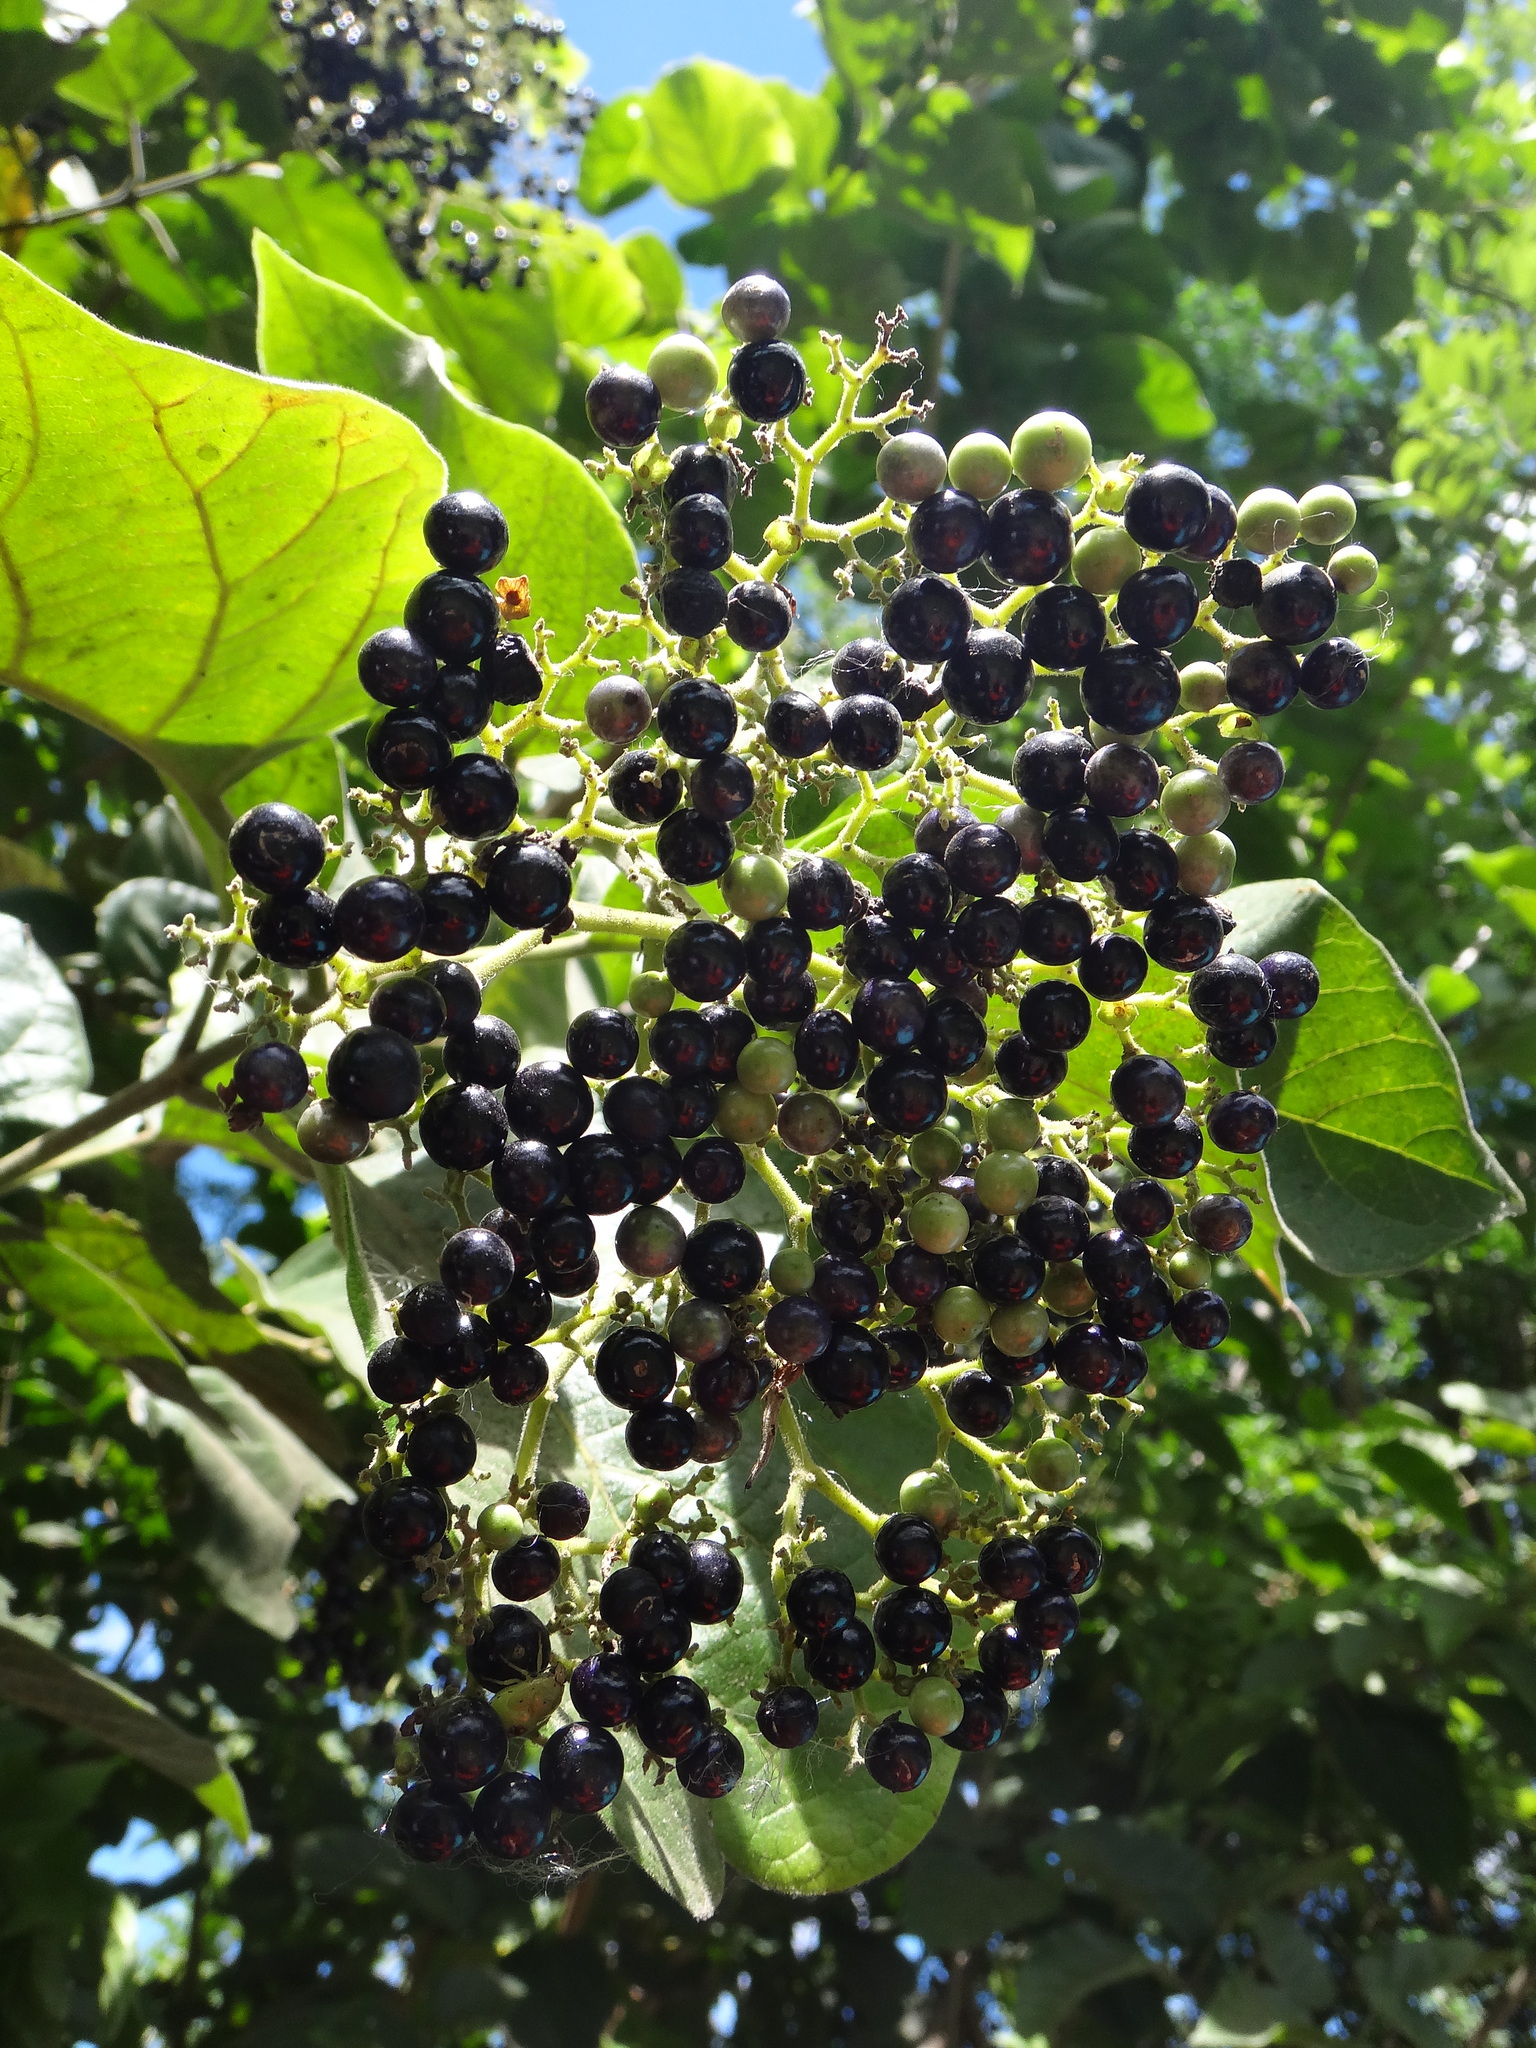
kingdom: Plantae
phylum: Tracheophyta
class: Magnoliopsida
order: Lamiales
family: Lamiaceae
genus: Premna
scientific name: Premna serratifolia
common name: Bastard guelder
